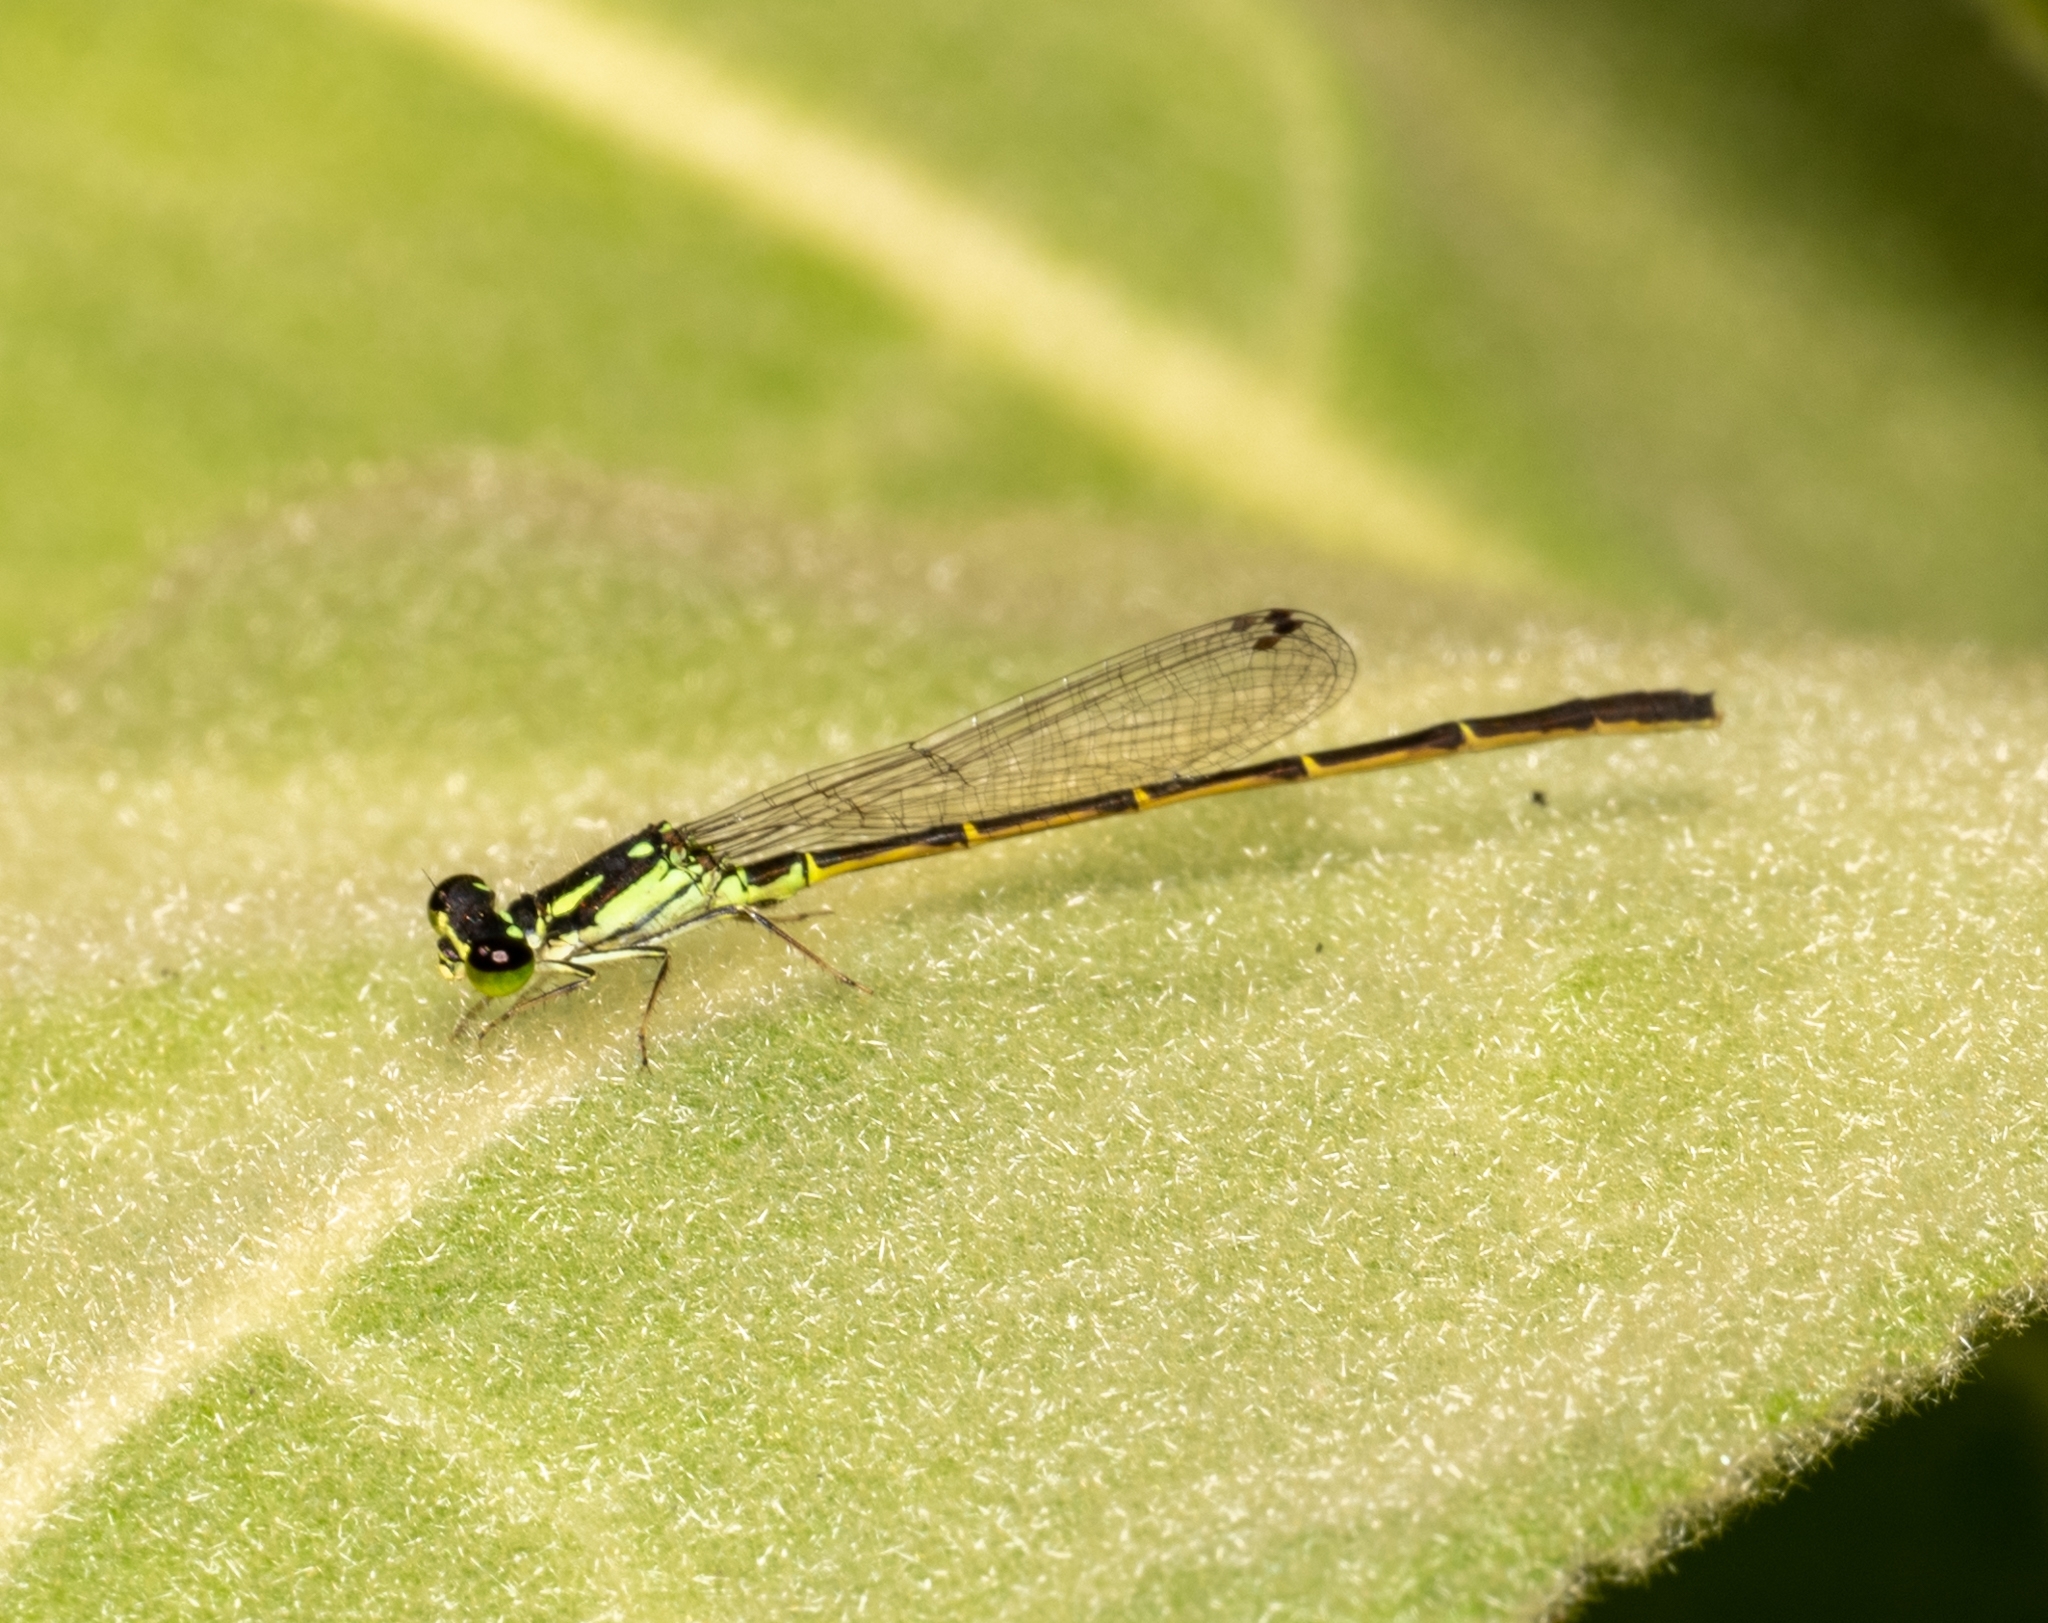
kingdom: Animalia
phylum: Arthropoda
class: Insecta
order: Odonata
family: Coenagrionidae
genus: Ischnura
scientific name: Ischnura posita
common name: Fragile forktail
